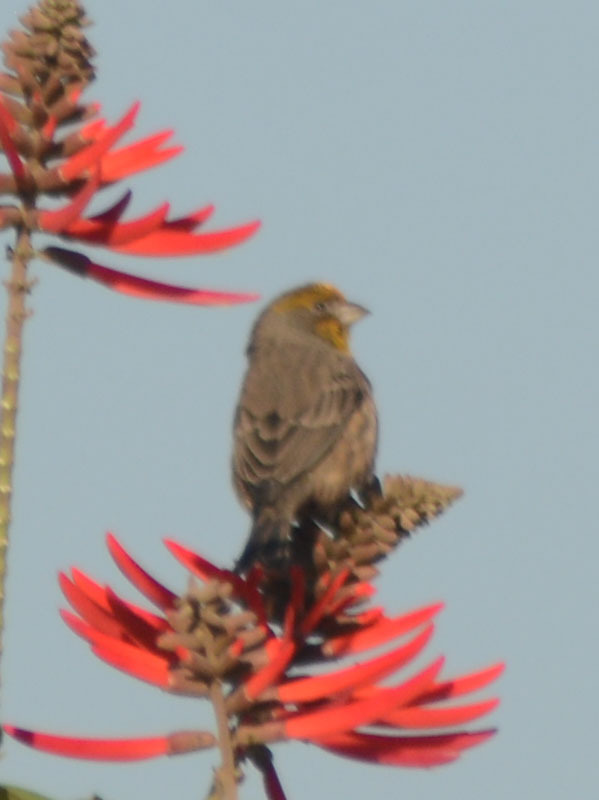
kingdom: Animalia
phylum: Chordata
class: Aves
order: Passeriformes
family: Fringillidae
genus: Haemorhous
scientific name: Haemorhous mexicanus
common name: House finch
